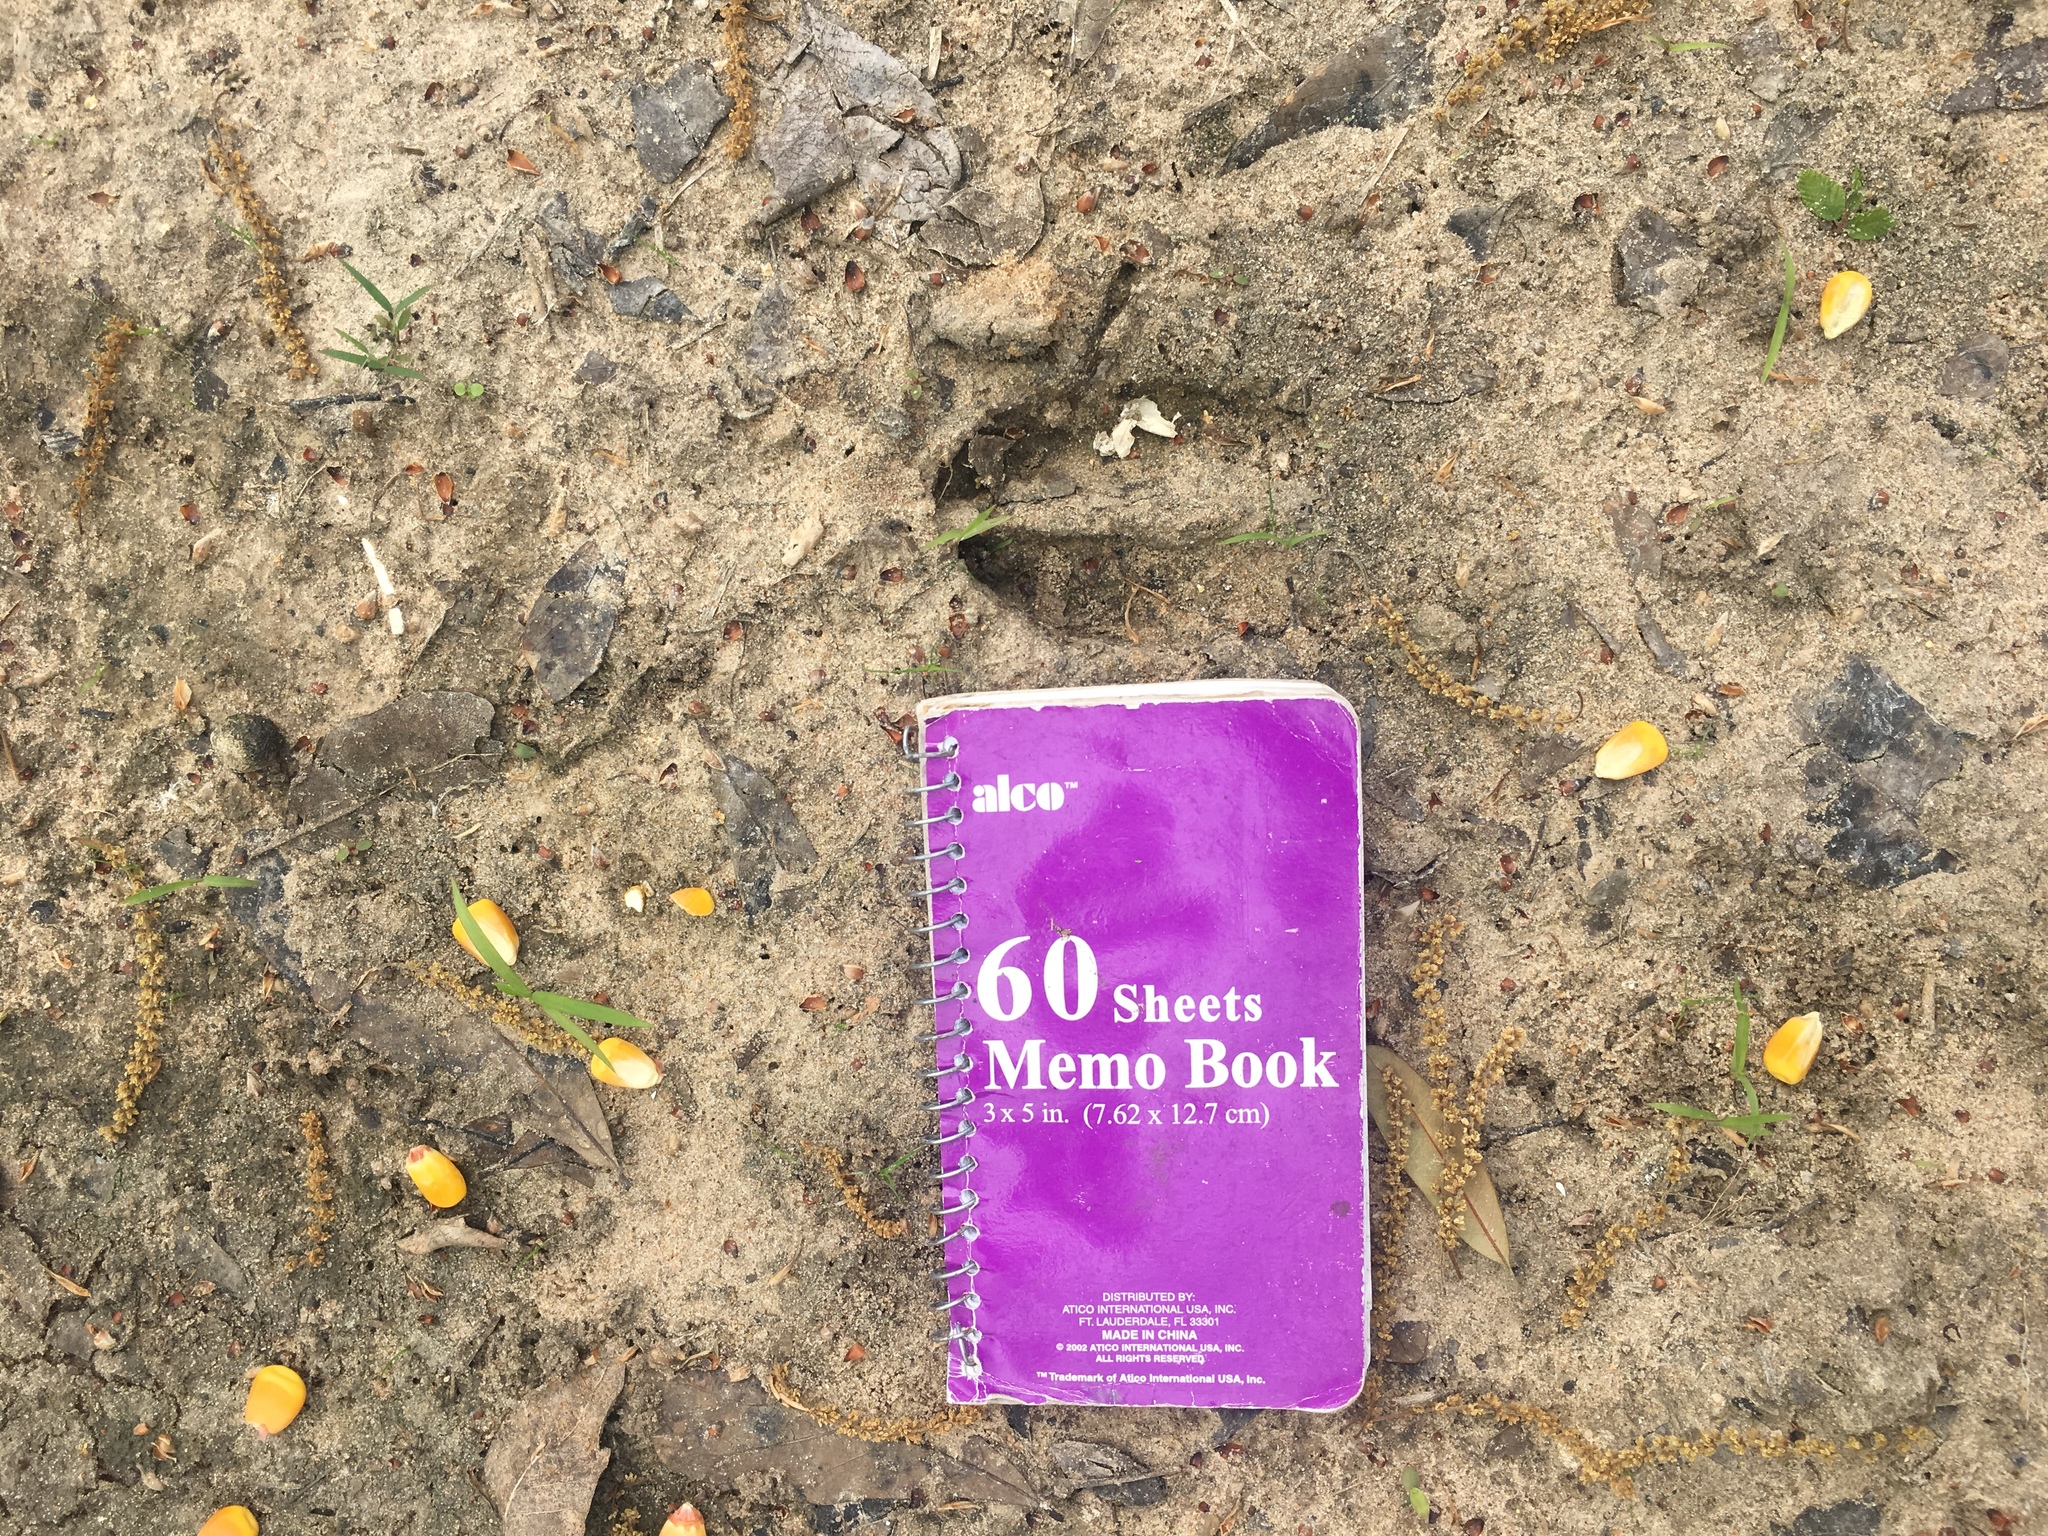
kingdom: Animalia
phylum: Chordata
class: Mammalia
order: Artiodactyla
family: Cervidae
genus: Odocoileus
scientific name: Odocoileus virginianus
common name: White-tailed deer
